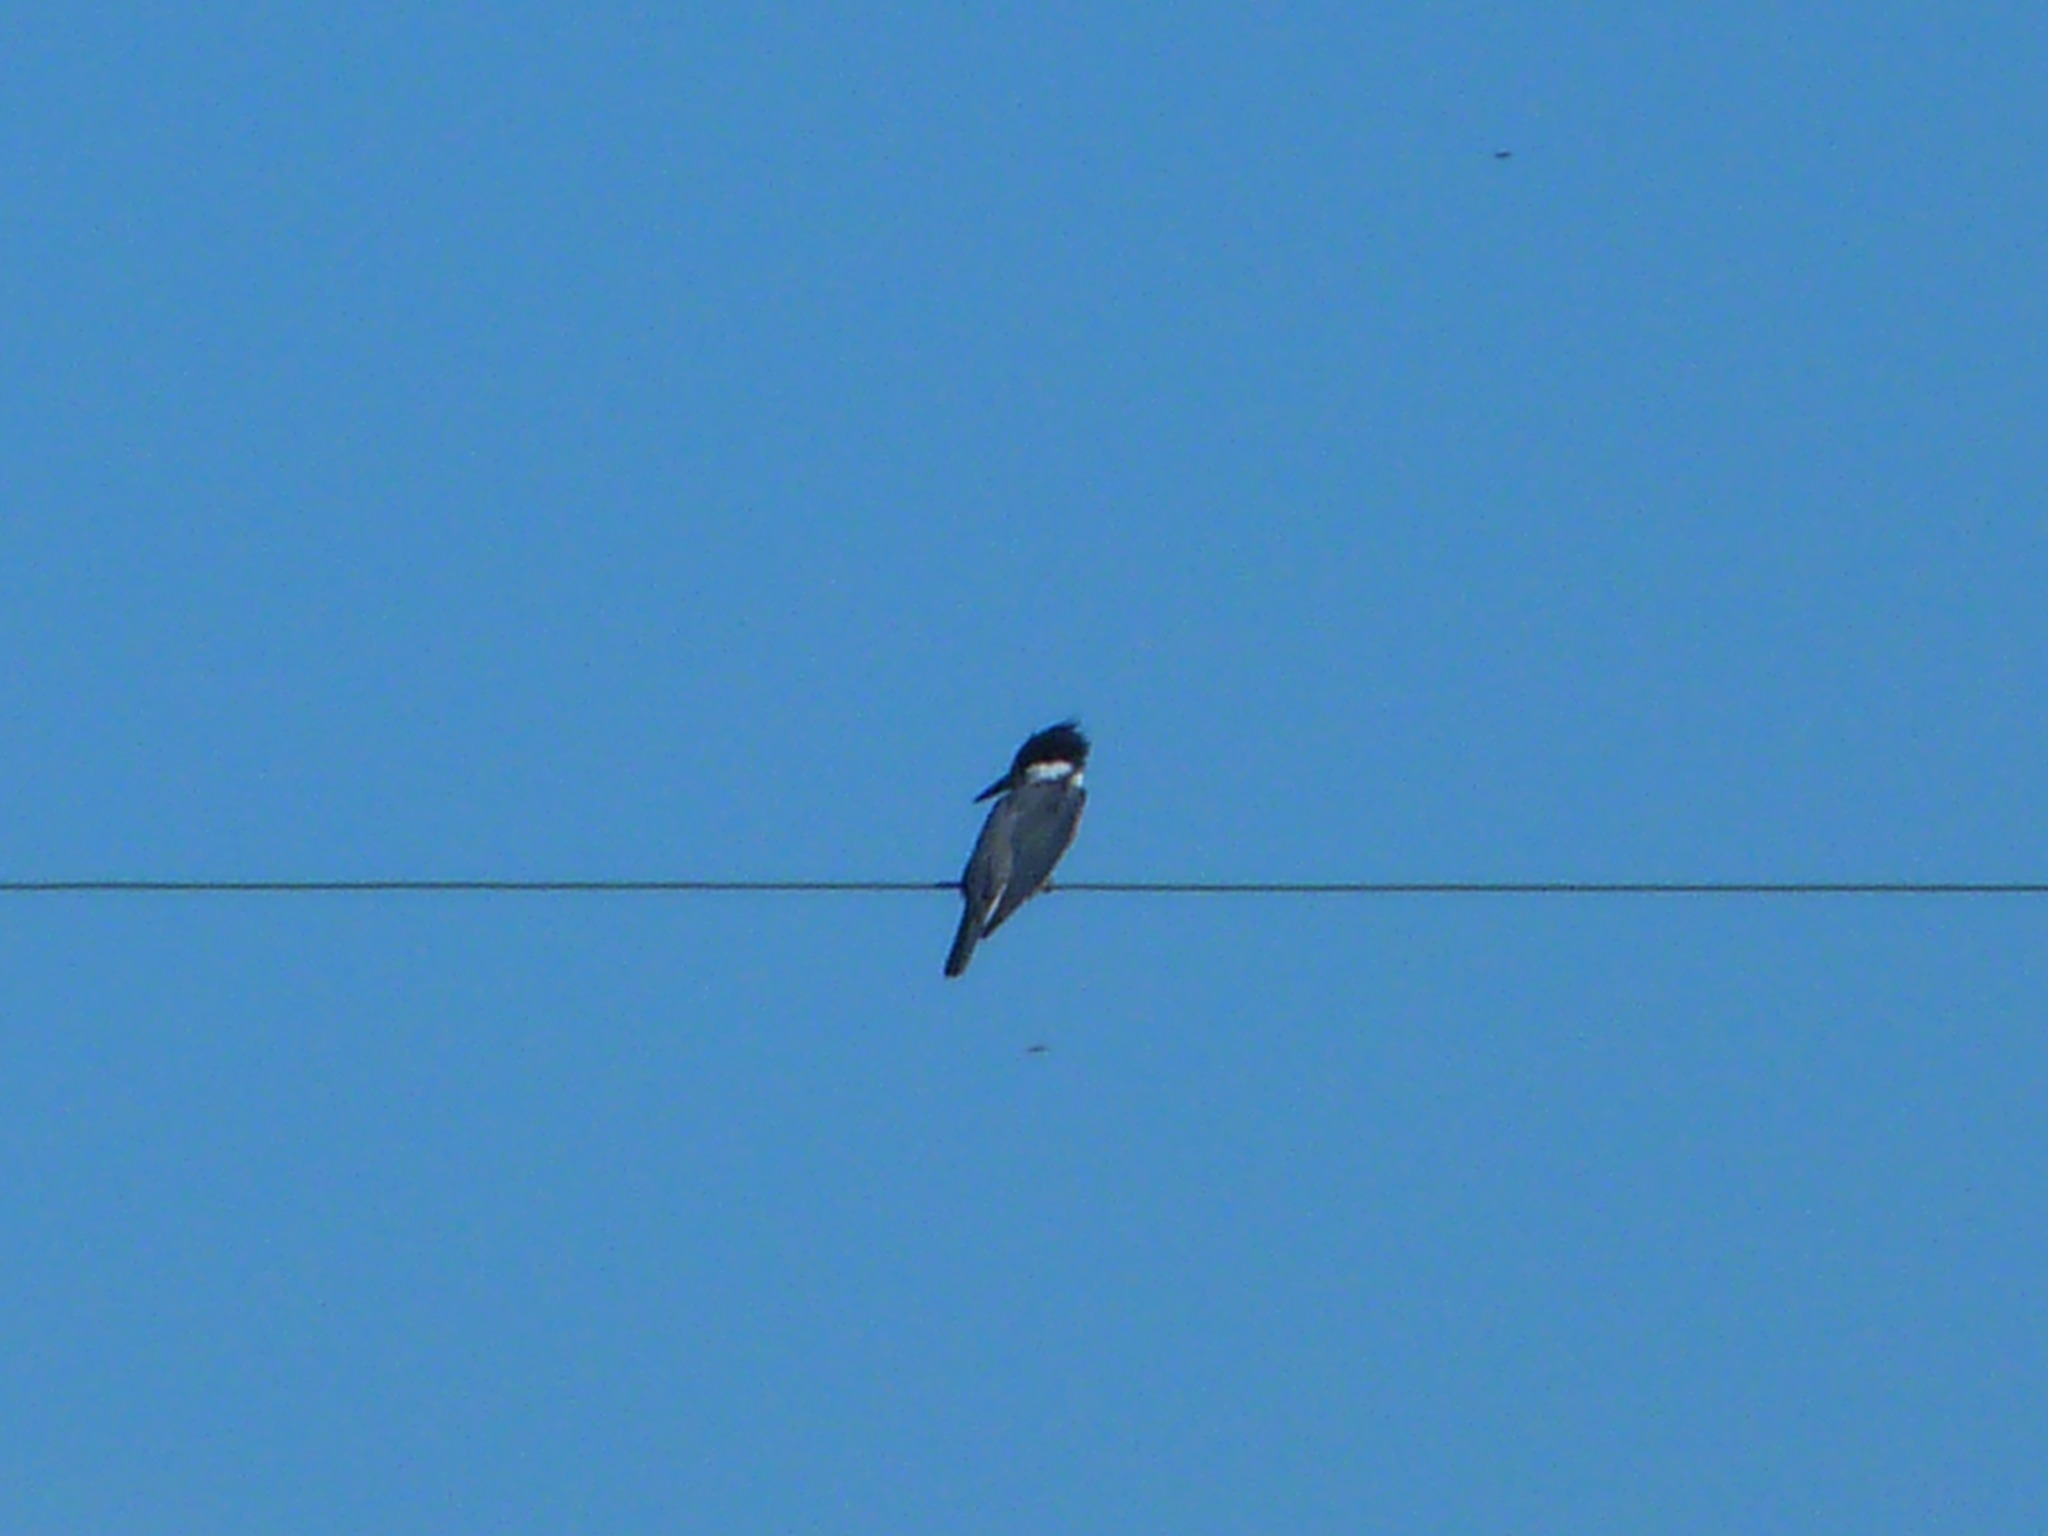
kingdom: Animalia
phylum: Chordata
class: Aves
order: Coraciiformes
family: Alcedinidae
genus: Megaceryle
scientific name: Megaceryle alcyon
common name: Belted kingfisher
